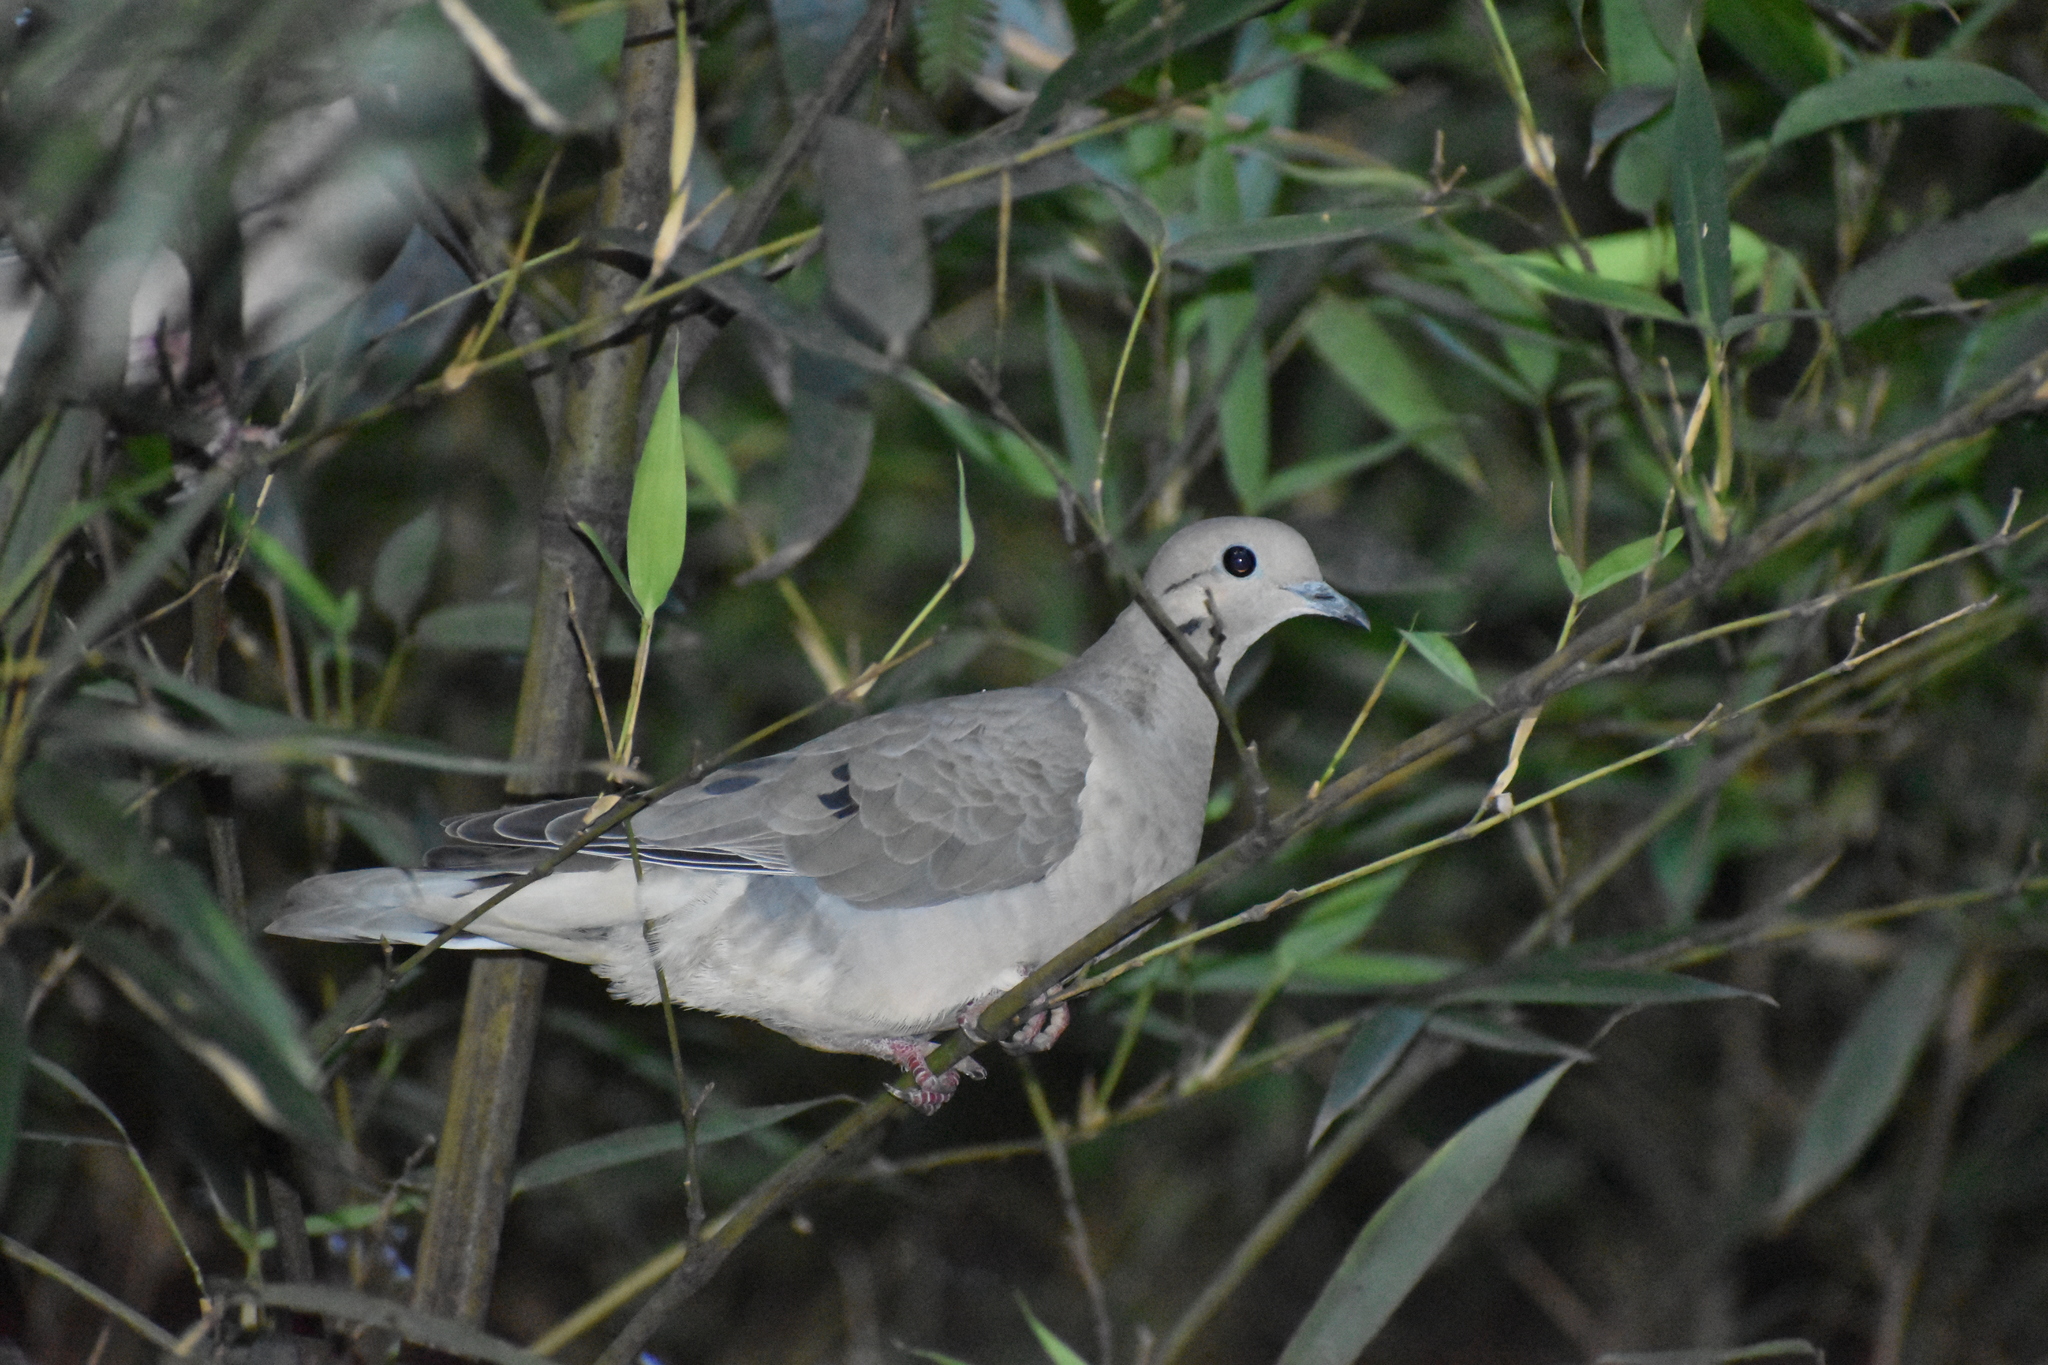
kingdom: Animalia
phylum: Chordata
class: Aves
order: Columbiformes
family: Columbidae
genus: Zenaida
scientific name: Zenaida auriculata
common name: Eared dove
